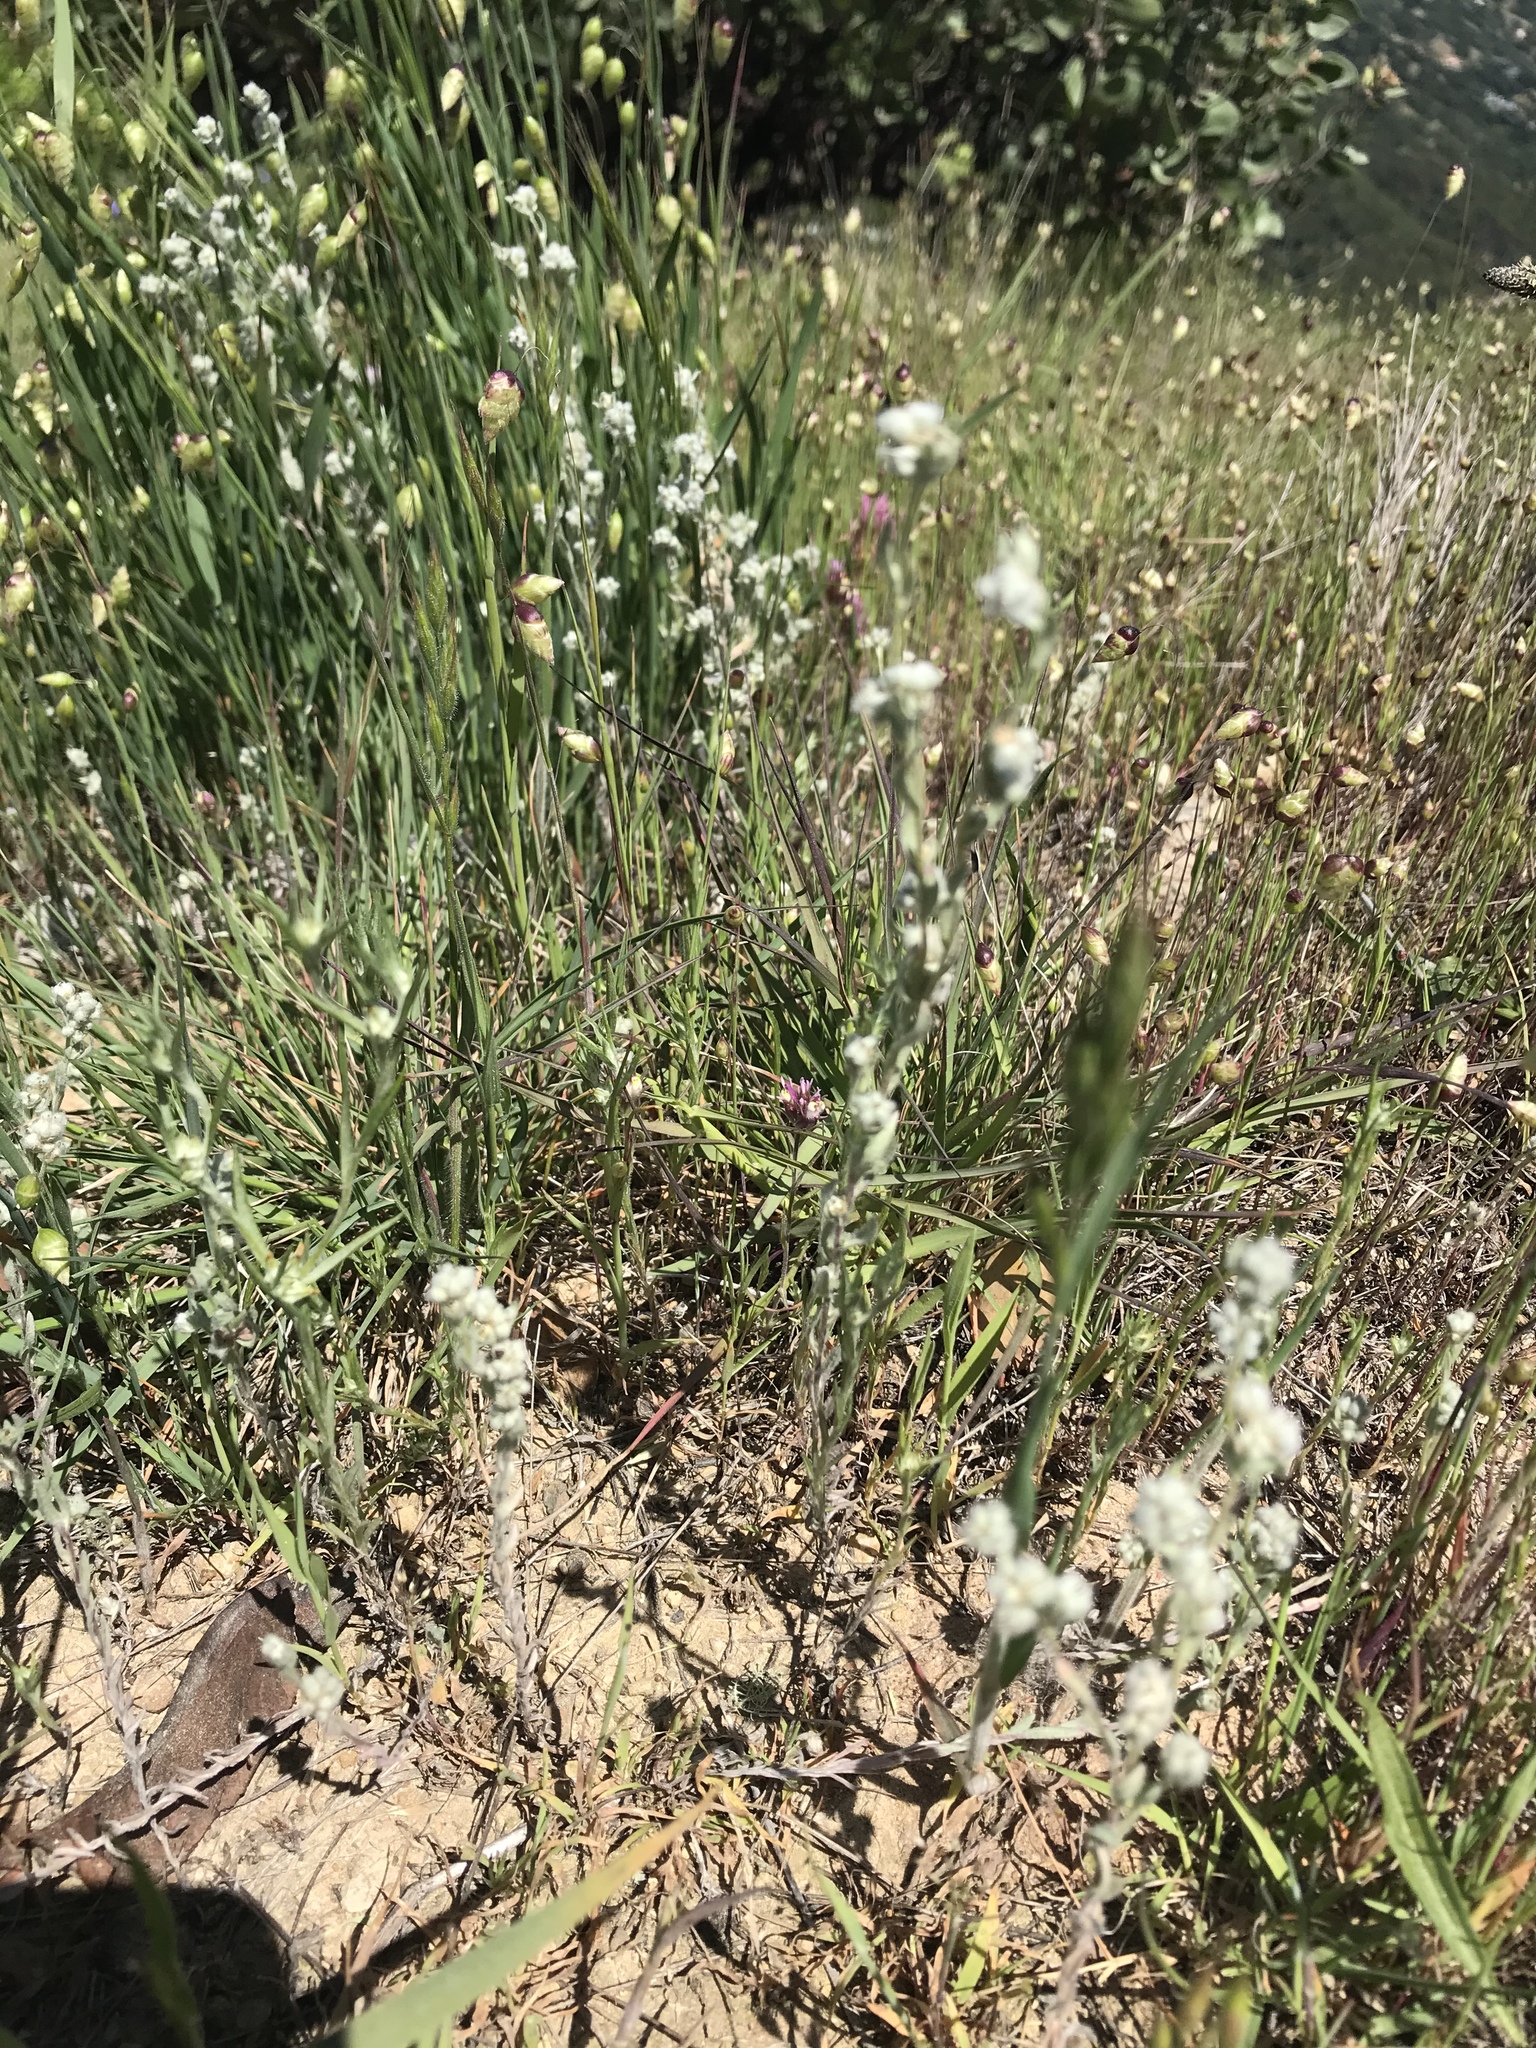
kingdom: Plantae
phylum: Tracheophyta
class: Magnoliopsida
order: Asterales
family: Asteraceae
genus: Bombycilaena
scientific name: Bombycilaena californica
